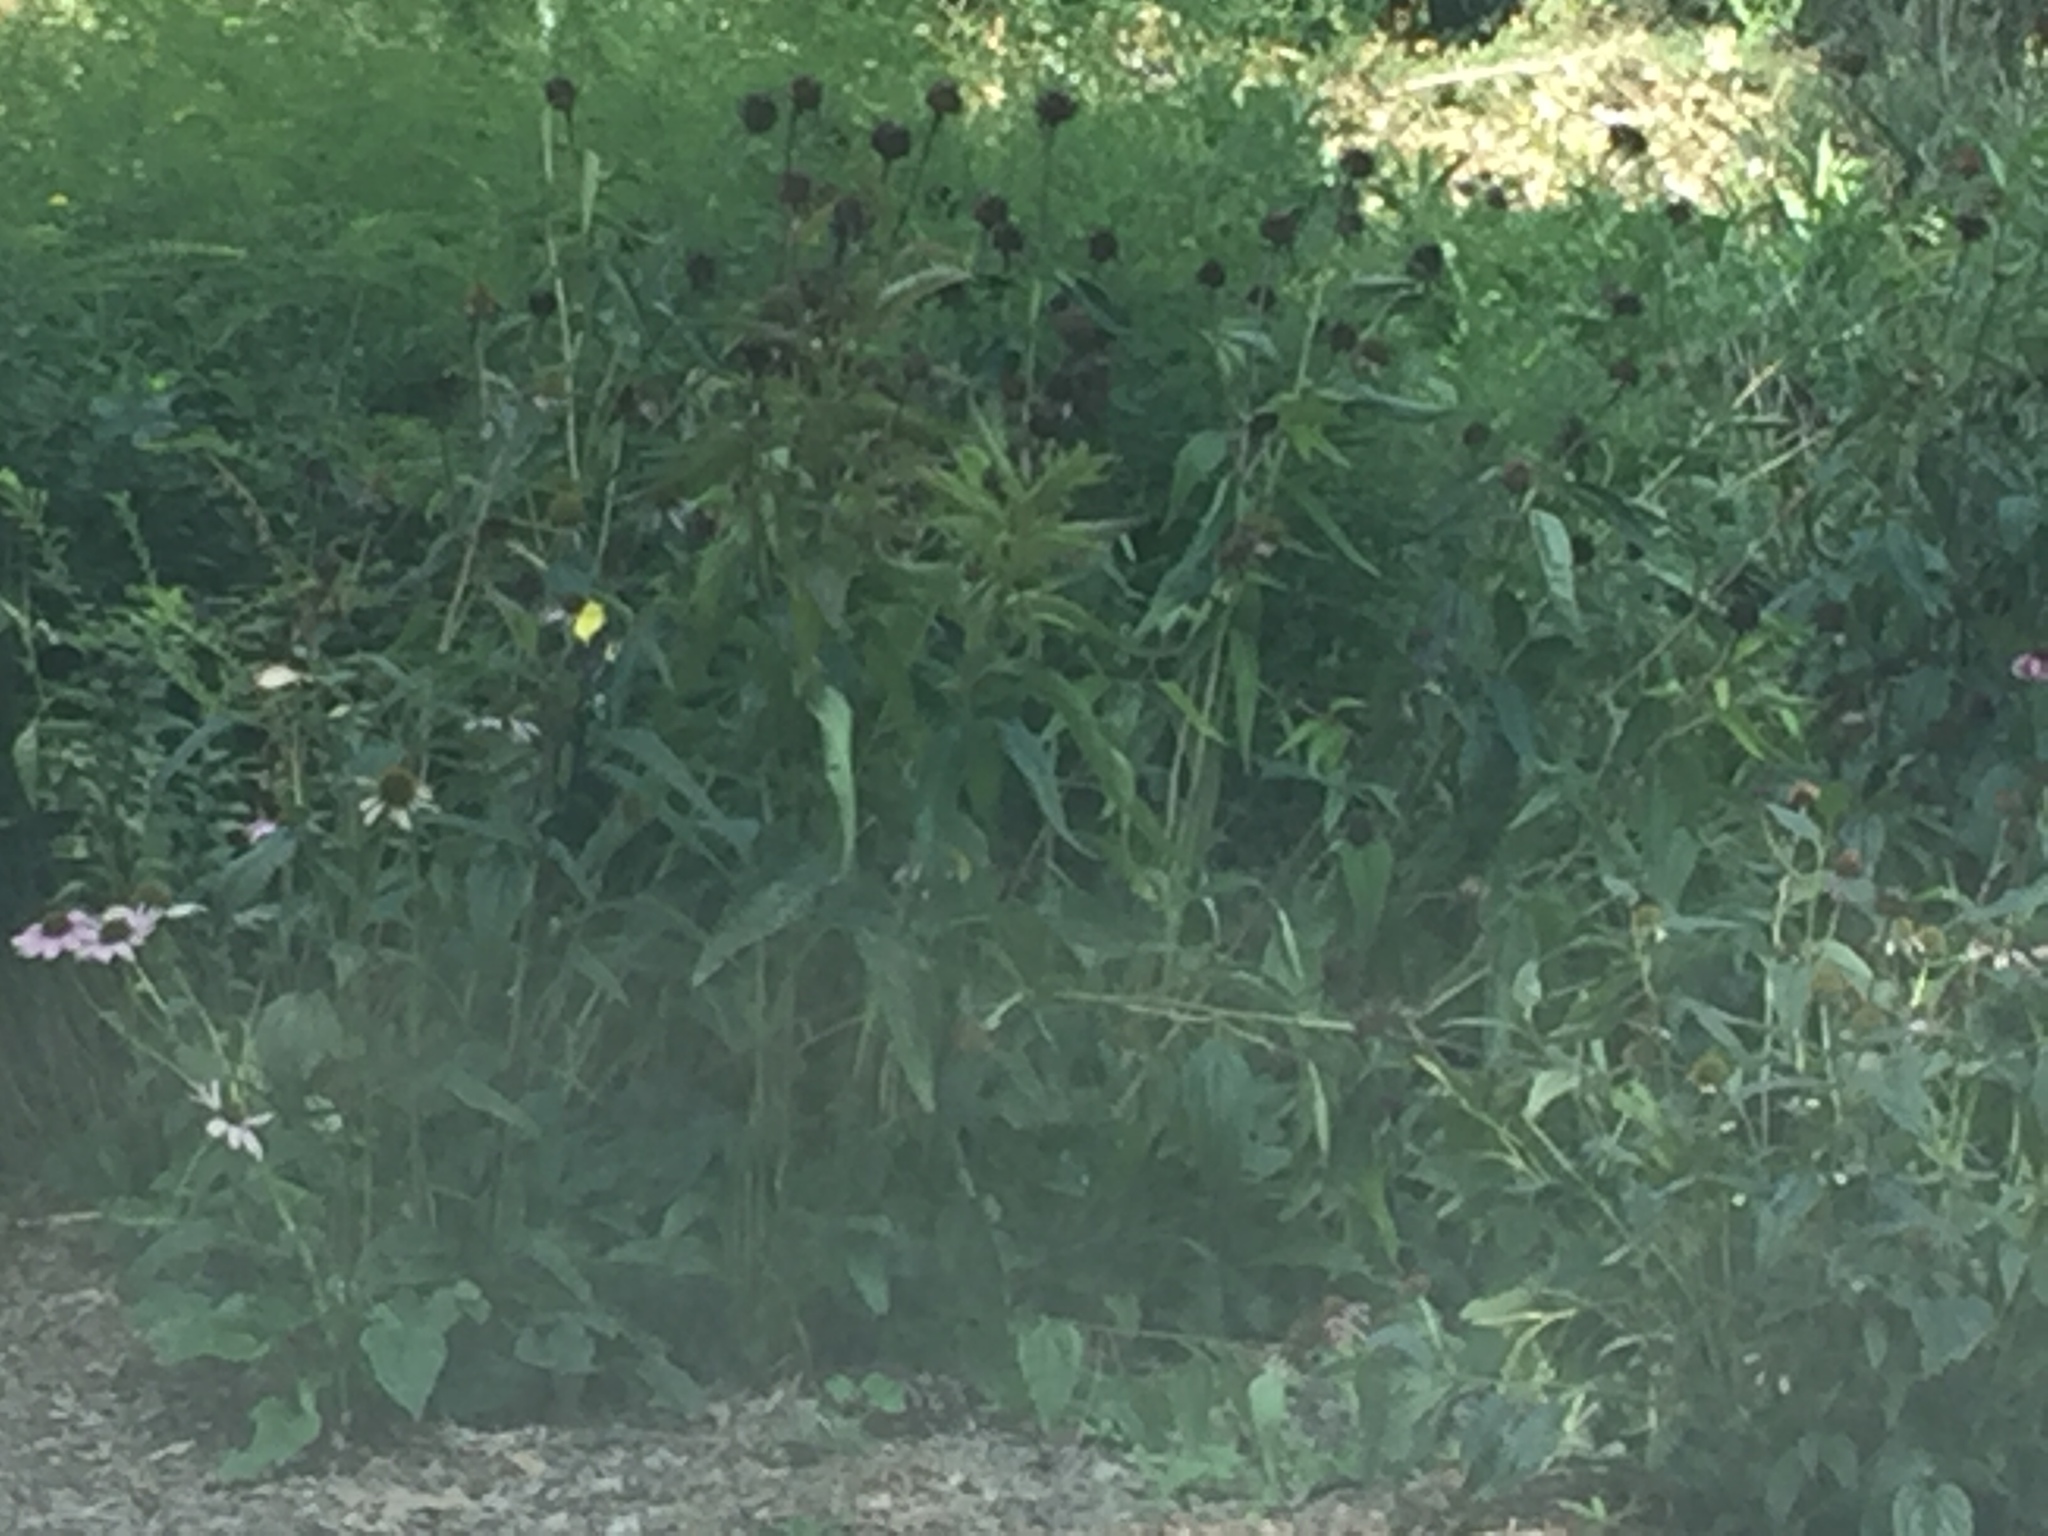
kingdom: Animalia
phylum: Chordata
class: Aves
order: Passeriformes
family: Fringillidae
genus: Spinus
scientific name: Spinus tristis
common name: American goldfinch
